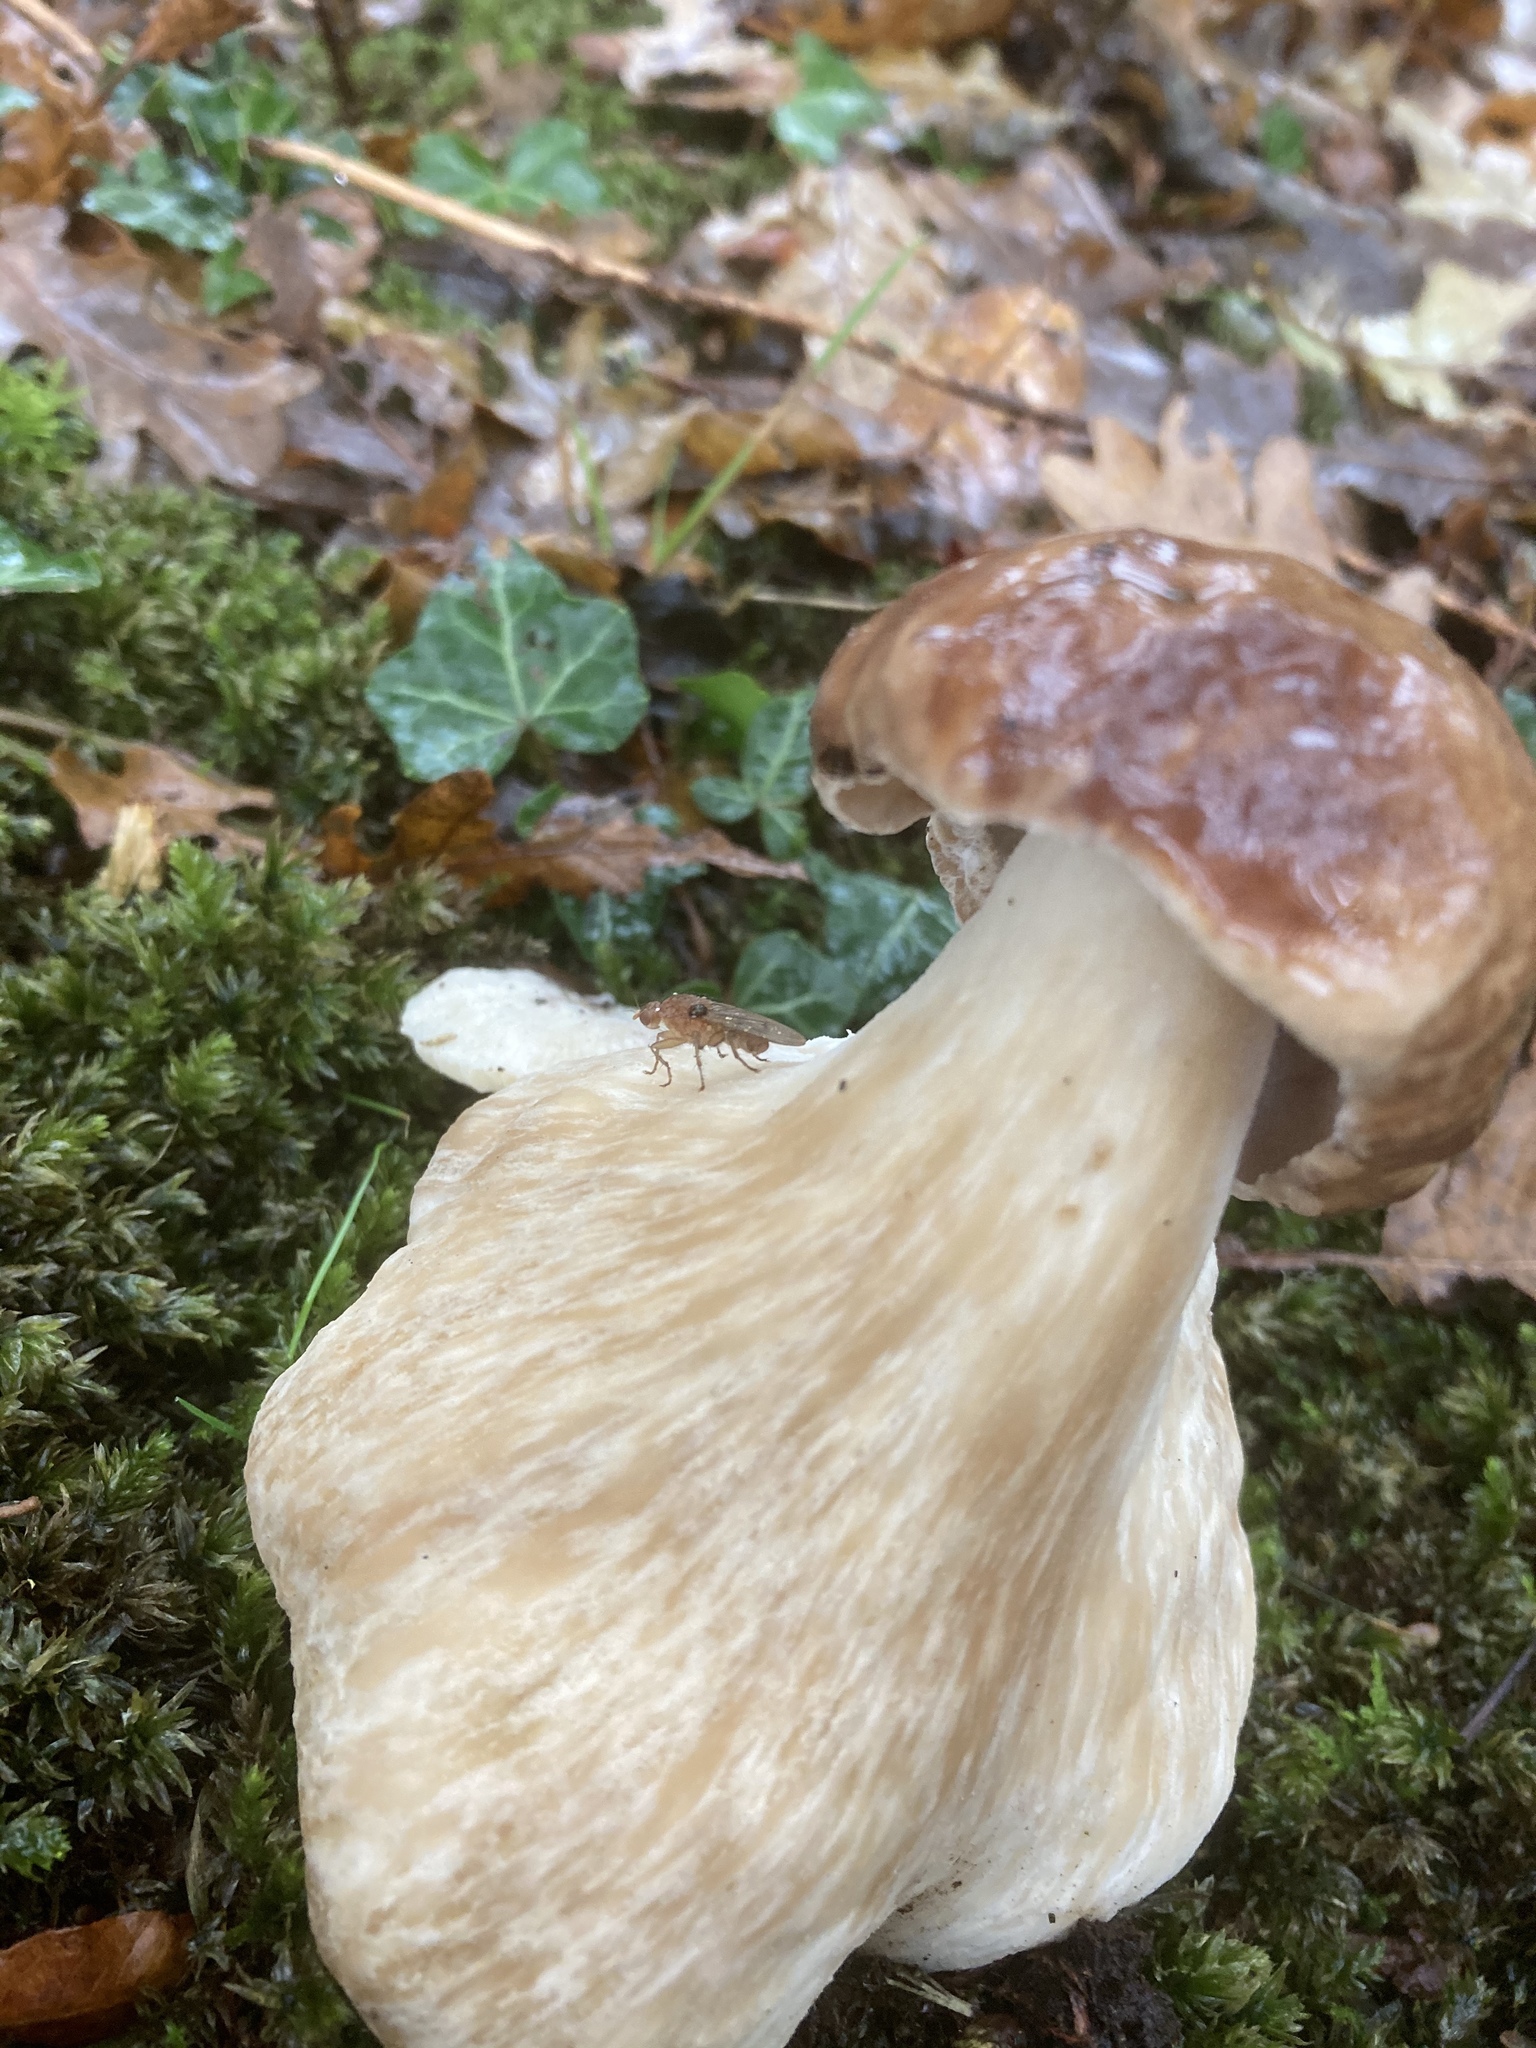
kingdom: Fungi
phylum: Basidiomycota
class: Agaricomycetes
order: Boletales
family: Boletaceae
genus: Boletus
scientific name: Boletus edulis
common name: Cep
